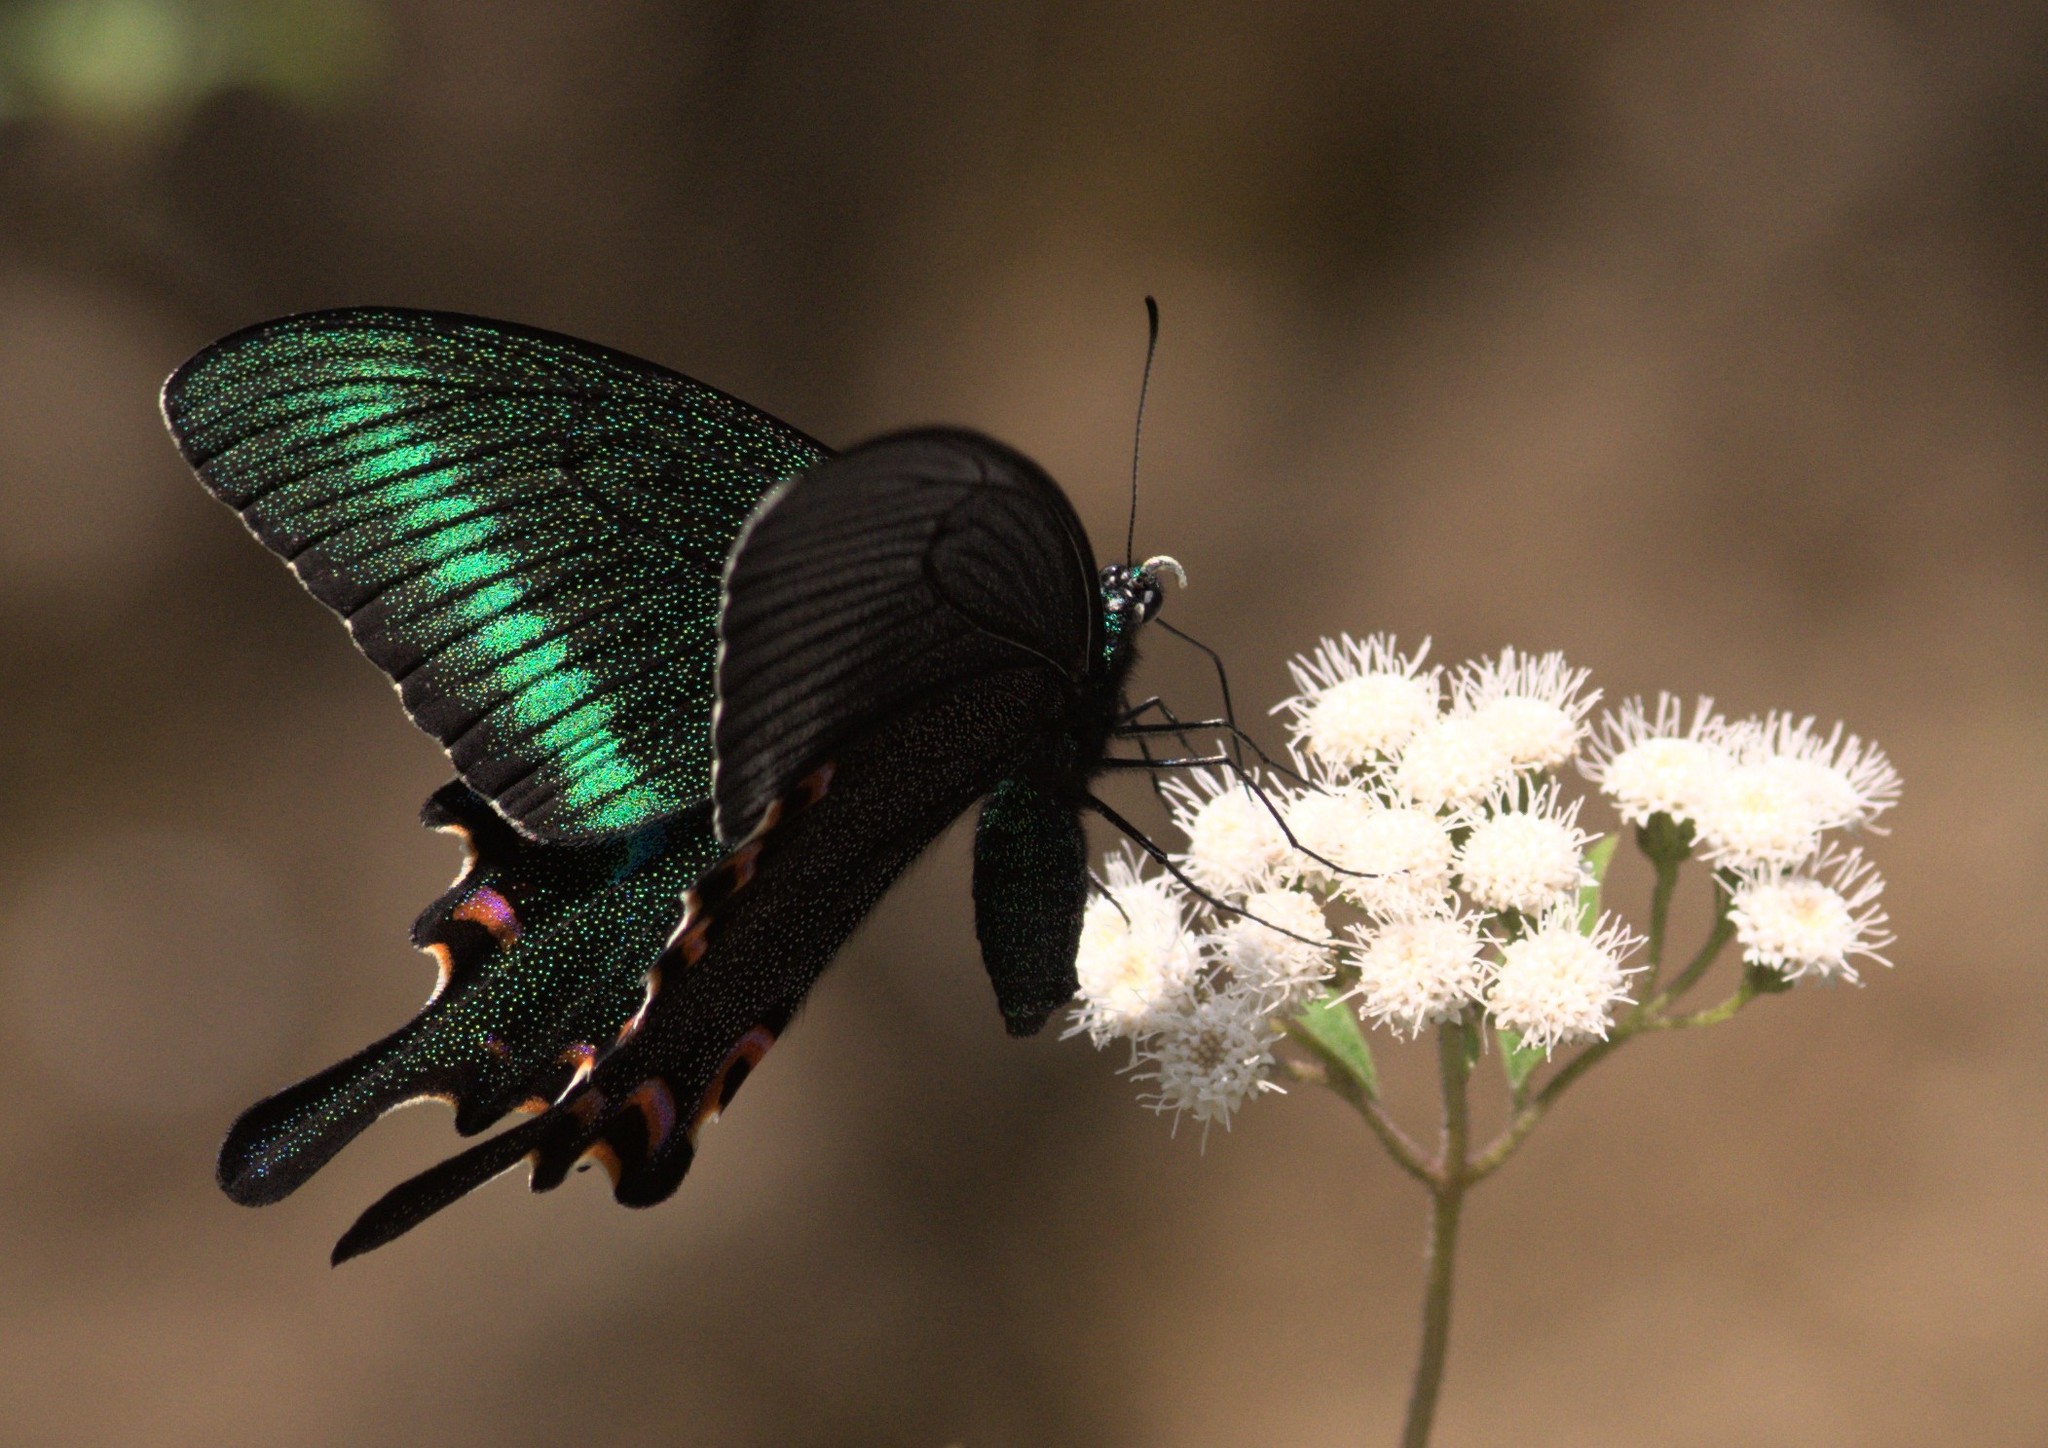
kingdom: Animalia
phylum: Arthropoda
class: Insecta
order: Lepidoptera
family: Papilionidae
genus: Papilio
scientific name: Papilio bianor
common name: Common peacock
